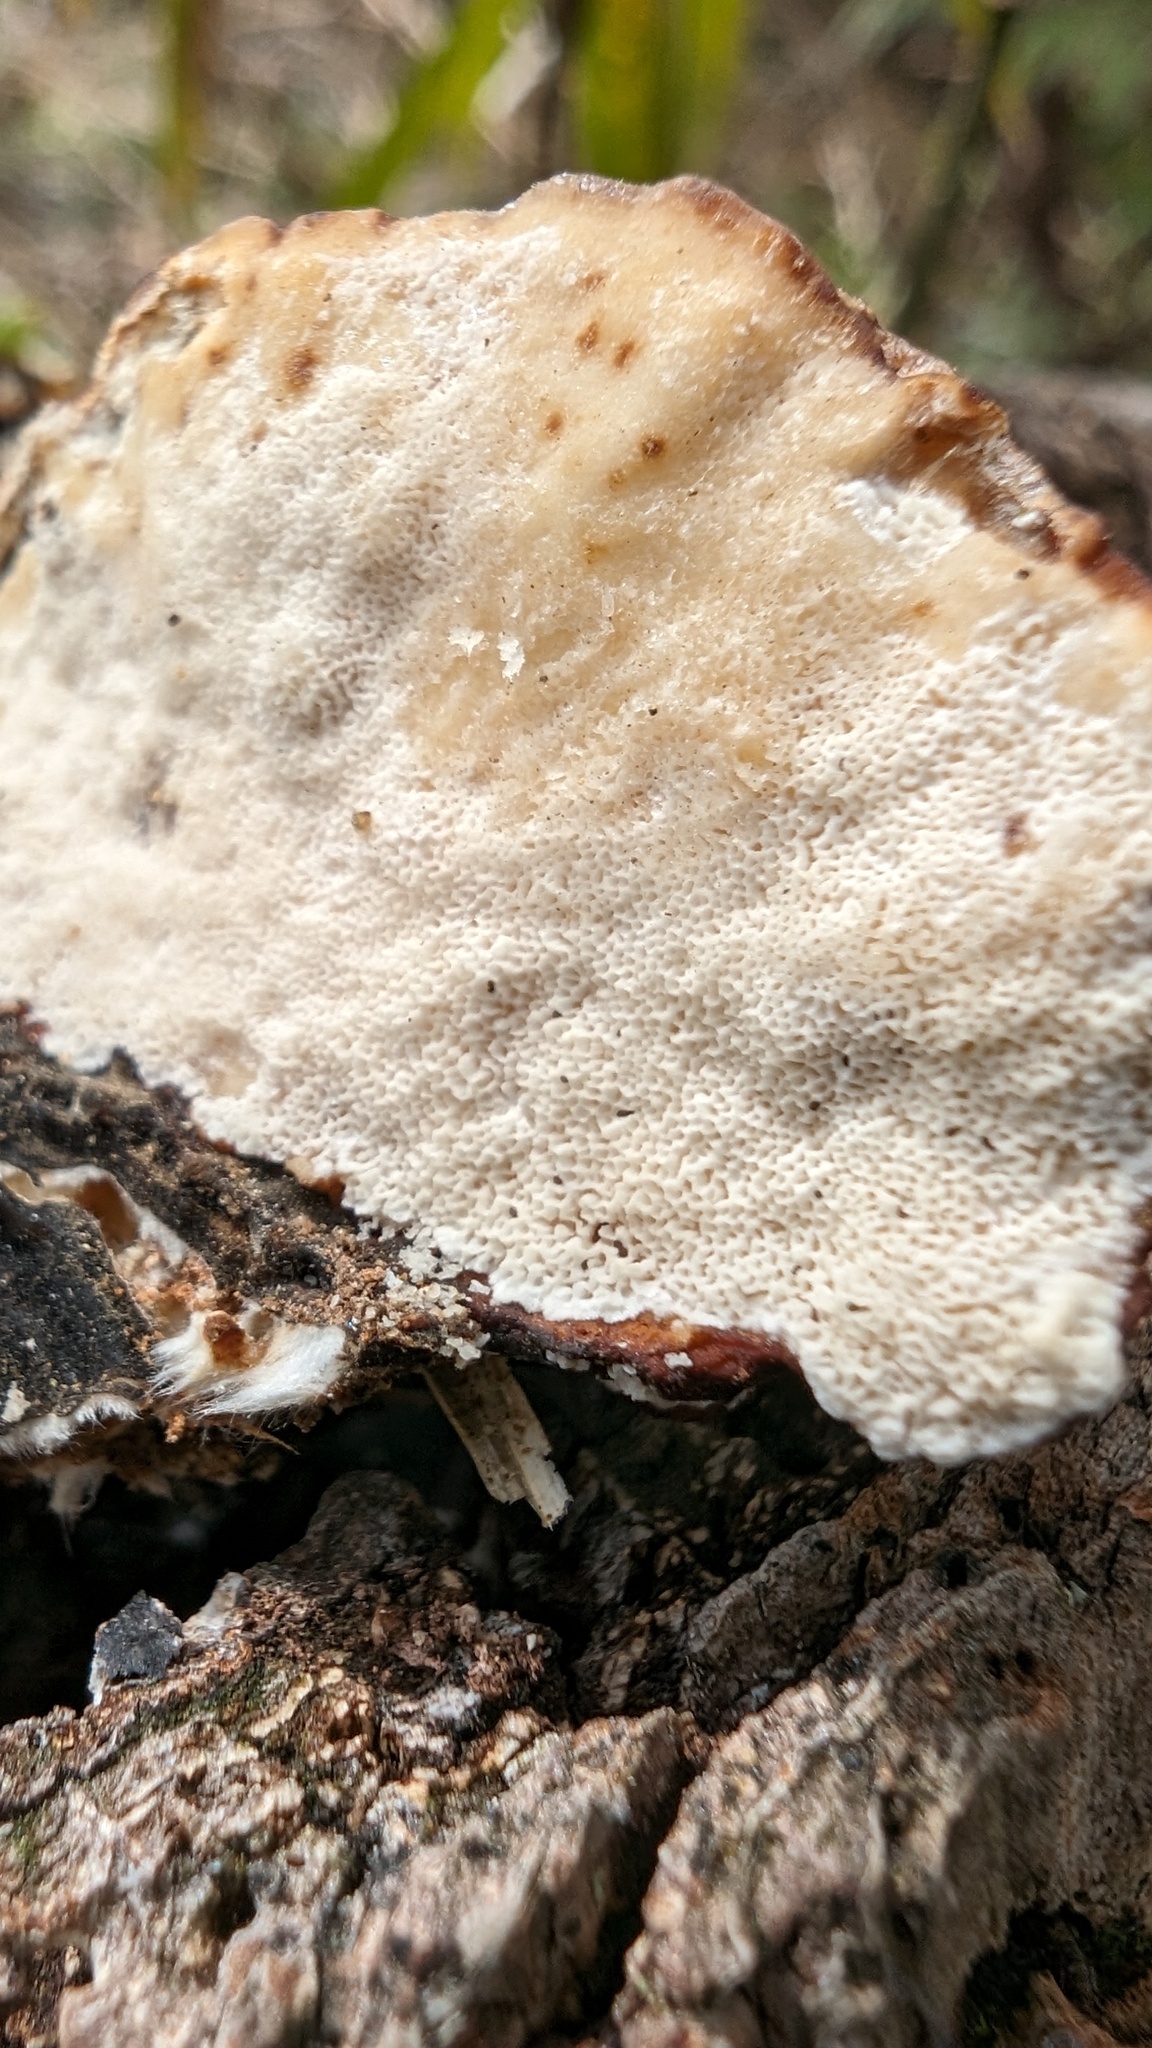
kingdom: Fungi
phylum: Basidiomycota
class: Agaricomycetes
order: Polyporales
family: Polyporaceae
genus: Trametes
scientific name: Trametes versicolor
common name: Turkeytail
